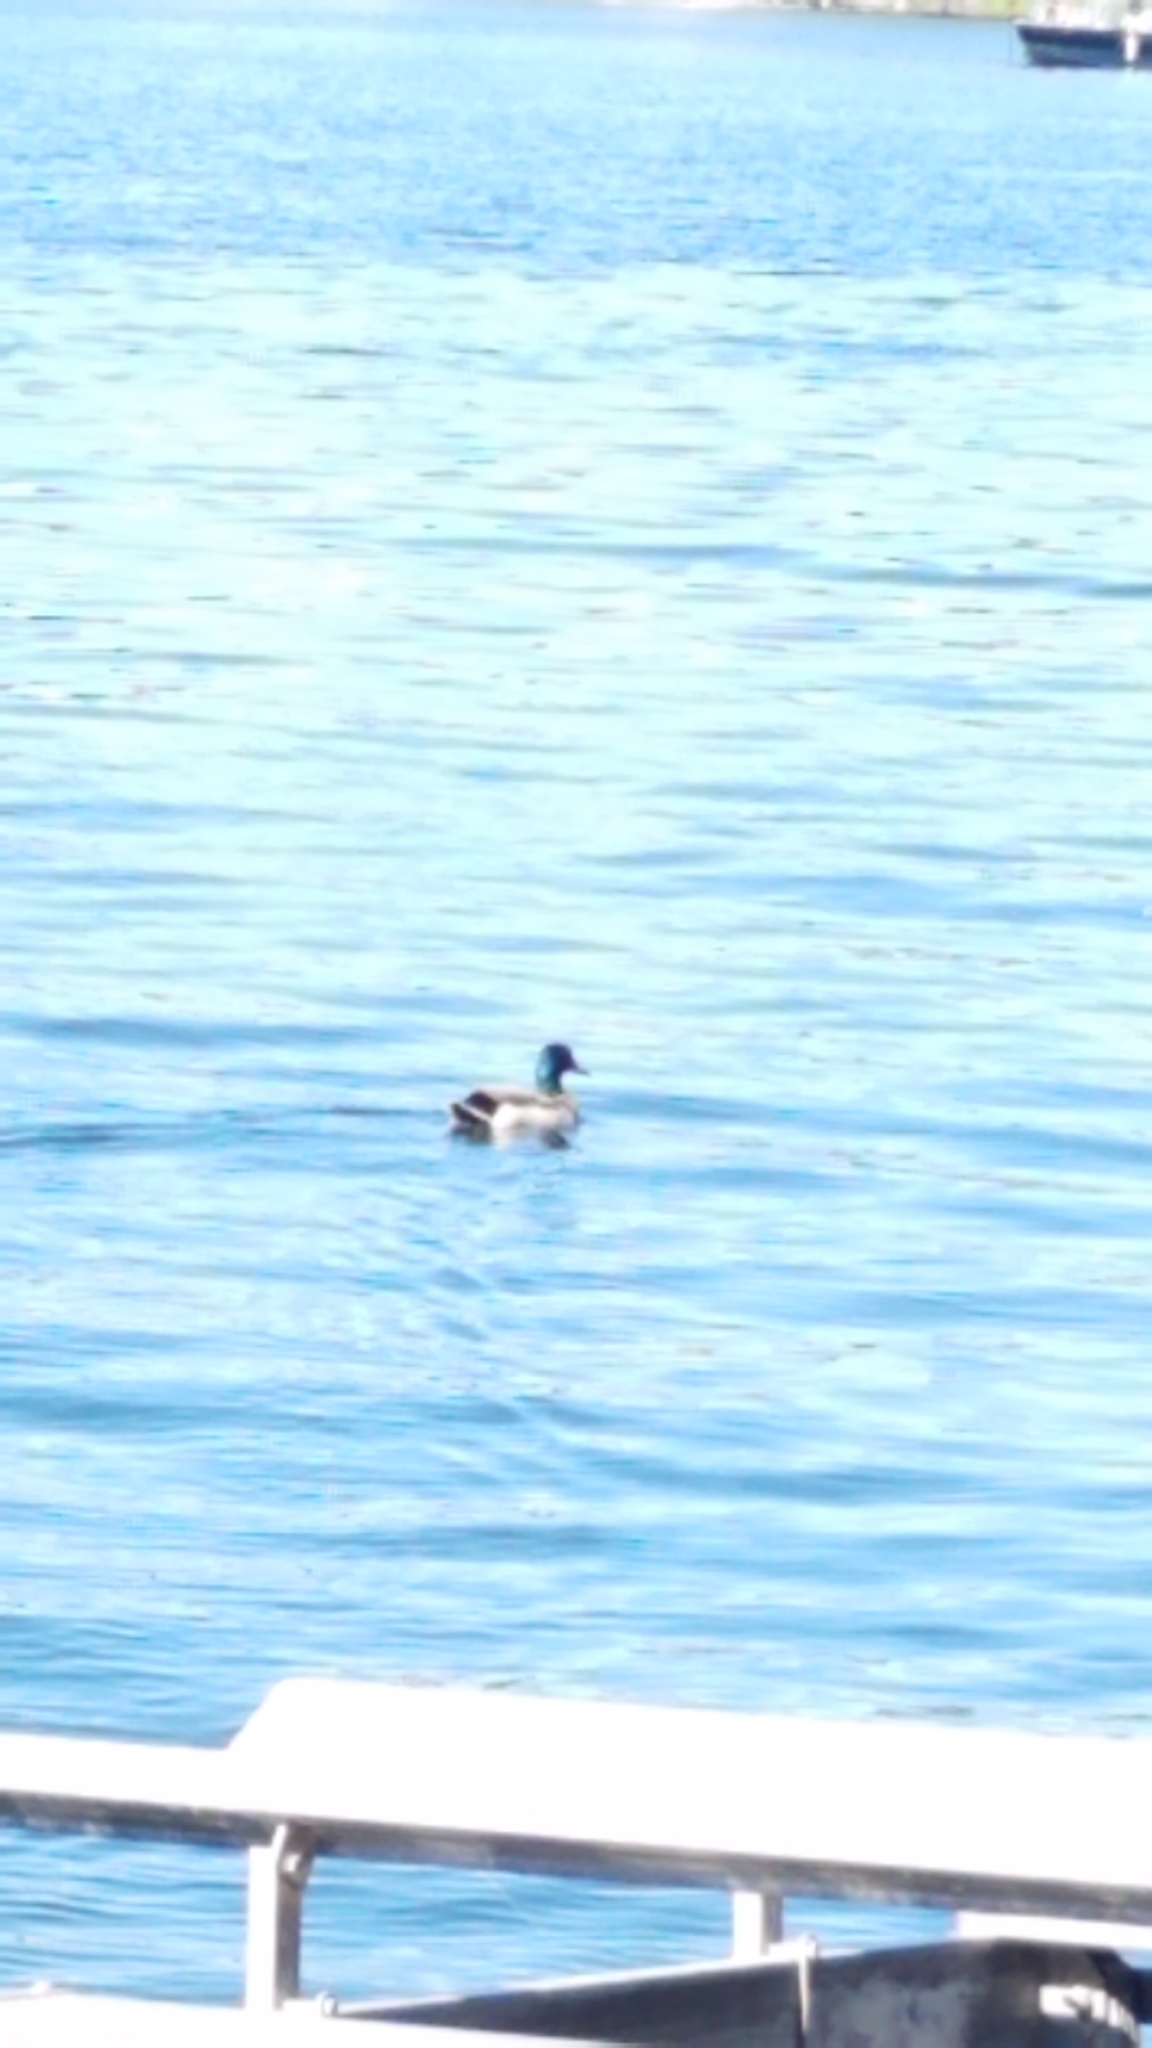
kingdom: Animalia
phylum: Chordata
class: Aves
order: Anseriformes
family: Anatidae
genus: Anas
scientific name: Anas platyrhynchos
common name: Mallard
